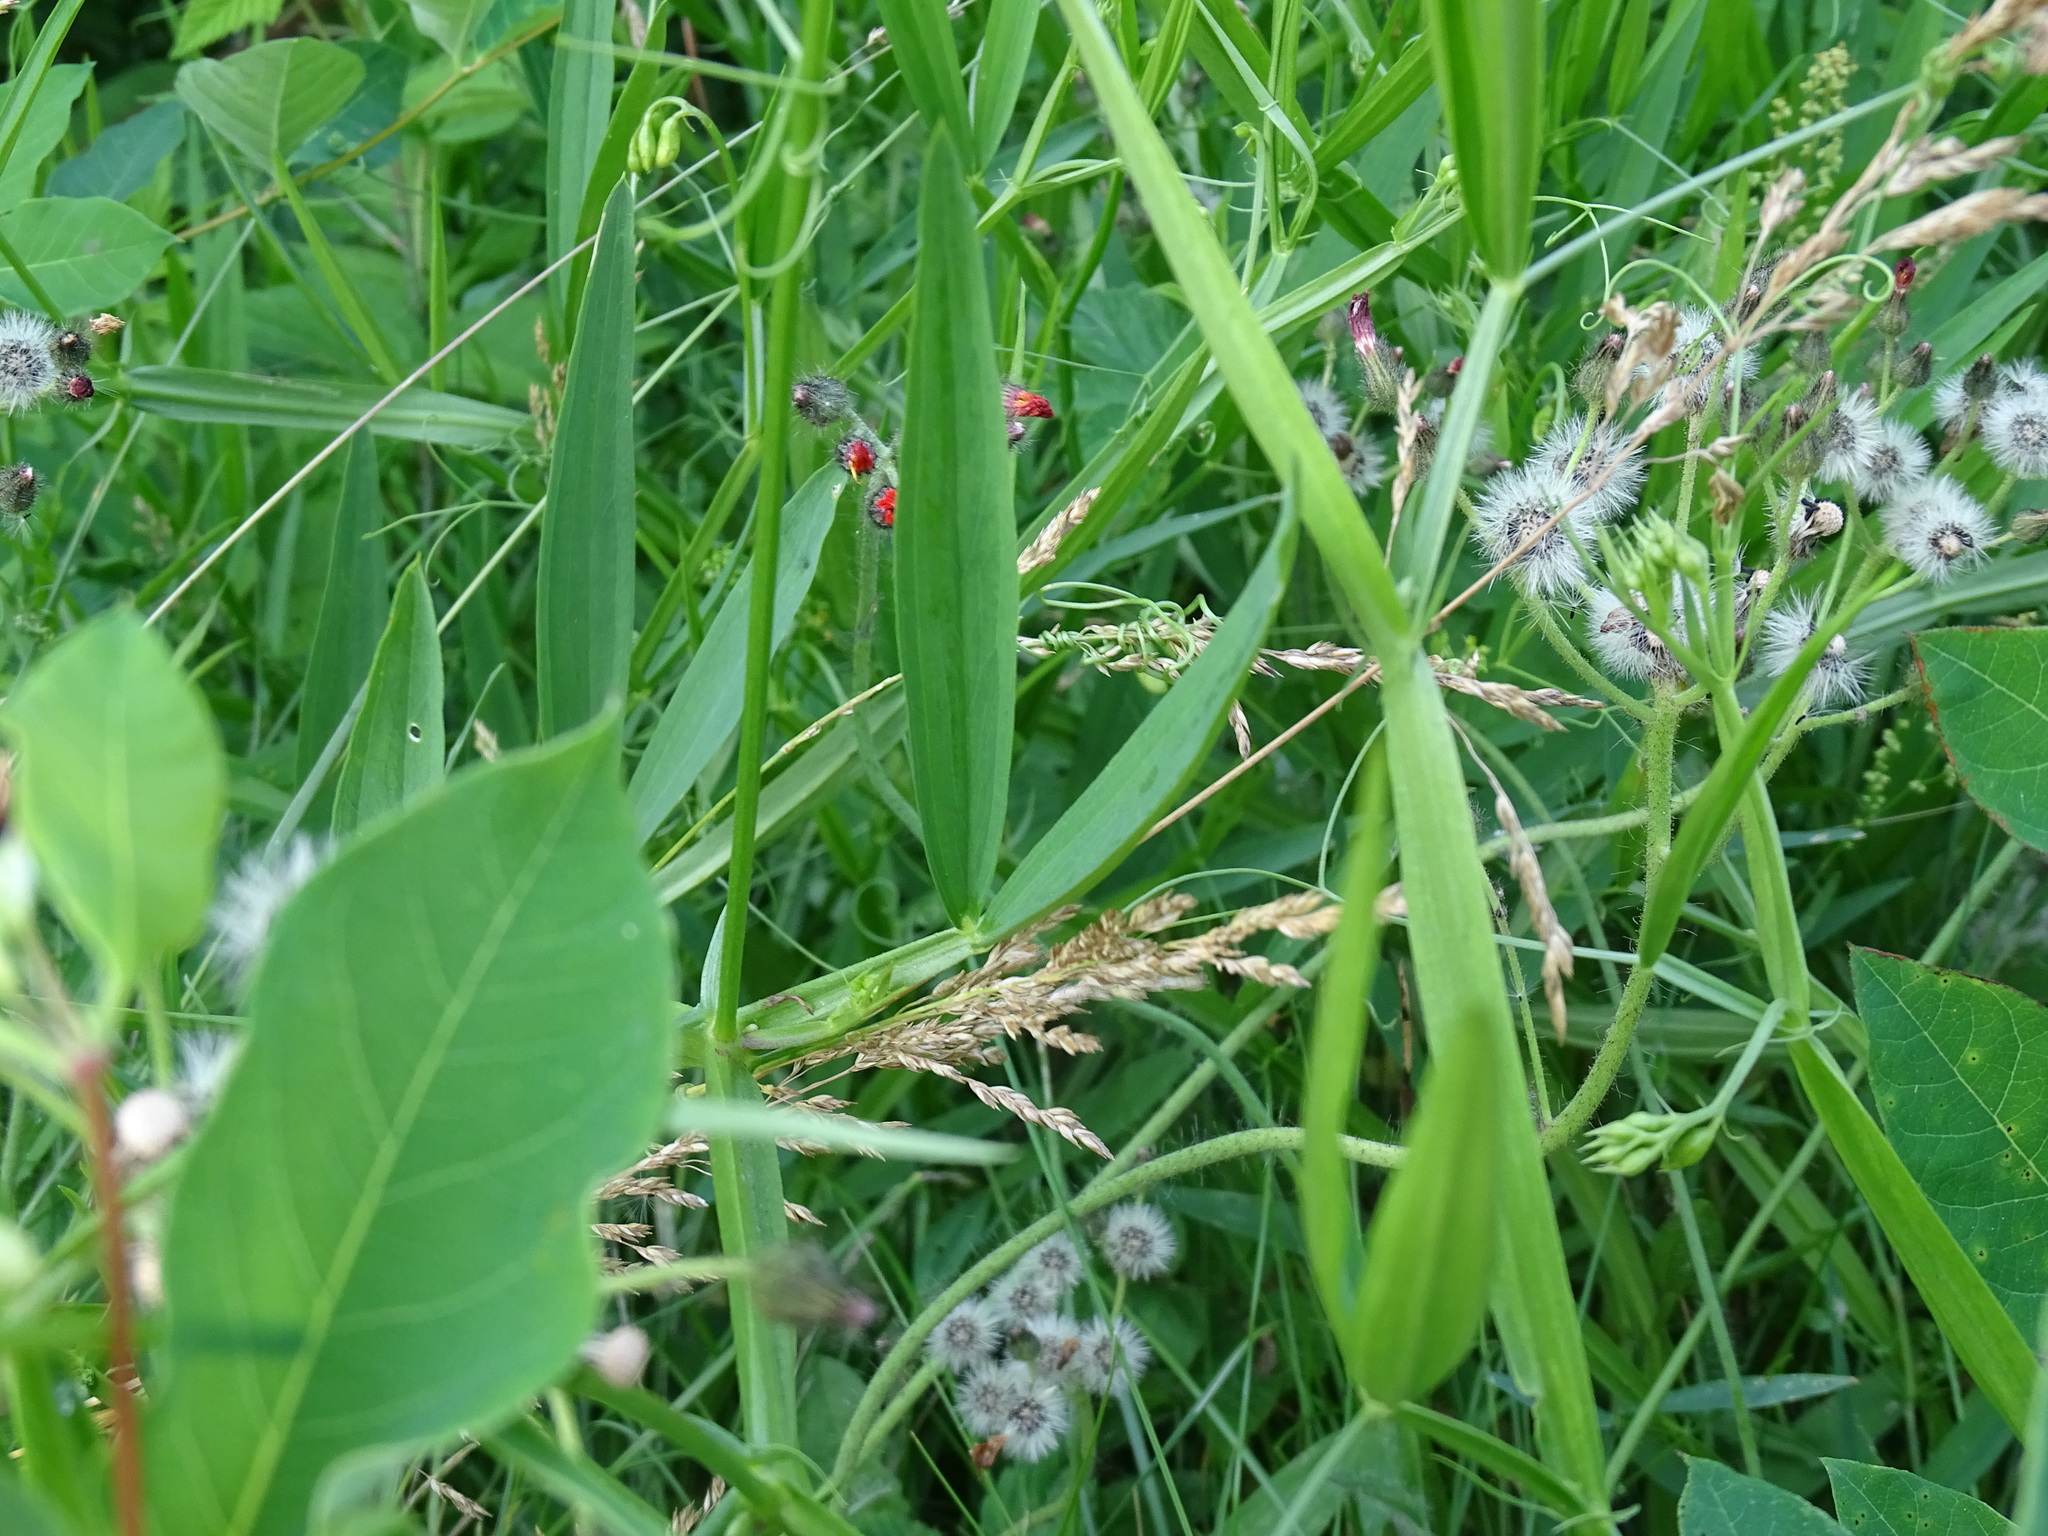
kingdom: Plantae
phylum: Tracheophyta
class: Magnoliopsida
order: Fabales
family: Fabaceae
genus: Lathyrus
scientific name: Lathyrus sylvestris
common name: Flat pea
